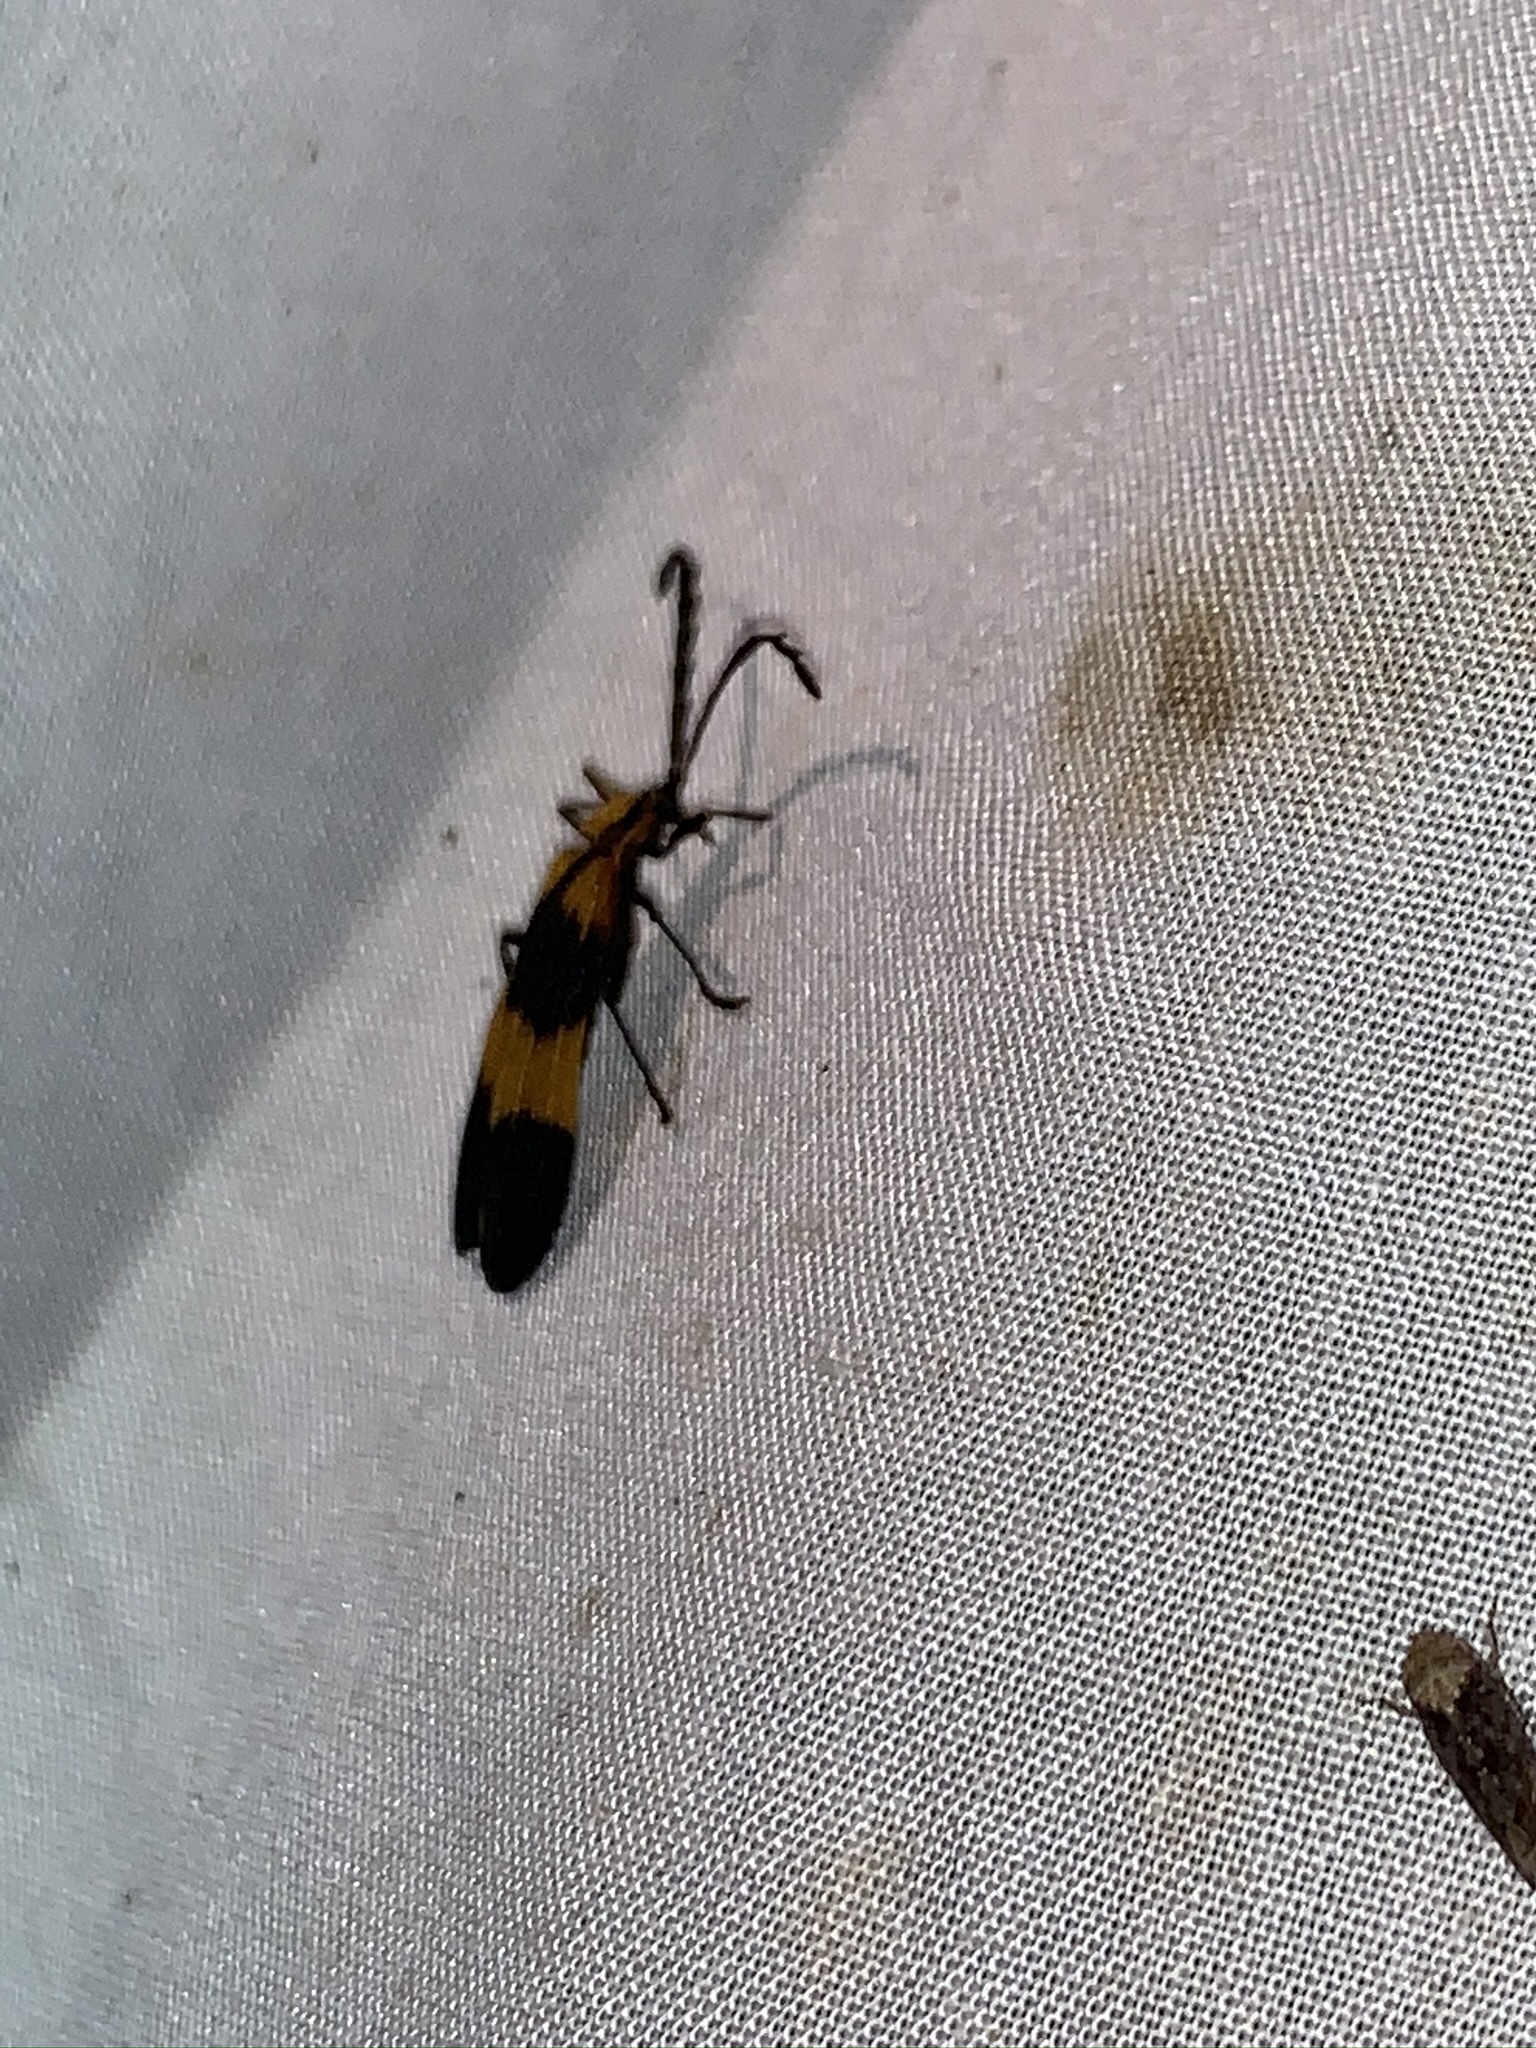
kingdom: Animalia
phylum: Arthropoda
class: Insecta
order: Coleoptera
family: Lycidae
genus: Calopteron
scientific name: Calopteron reticulatum
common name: Banded net-winged beetle
